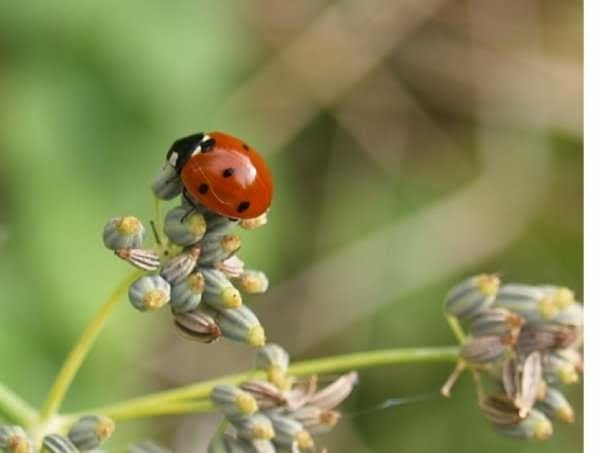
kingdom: Animalia
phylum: Arthropoda
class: Insecta
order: Coleoptera
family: Coccinellidae
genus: Coccinella
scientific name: Coccinella septempunctata
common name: Sevenspotted lady beetle
